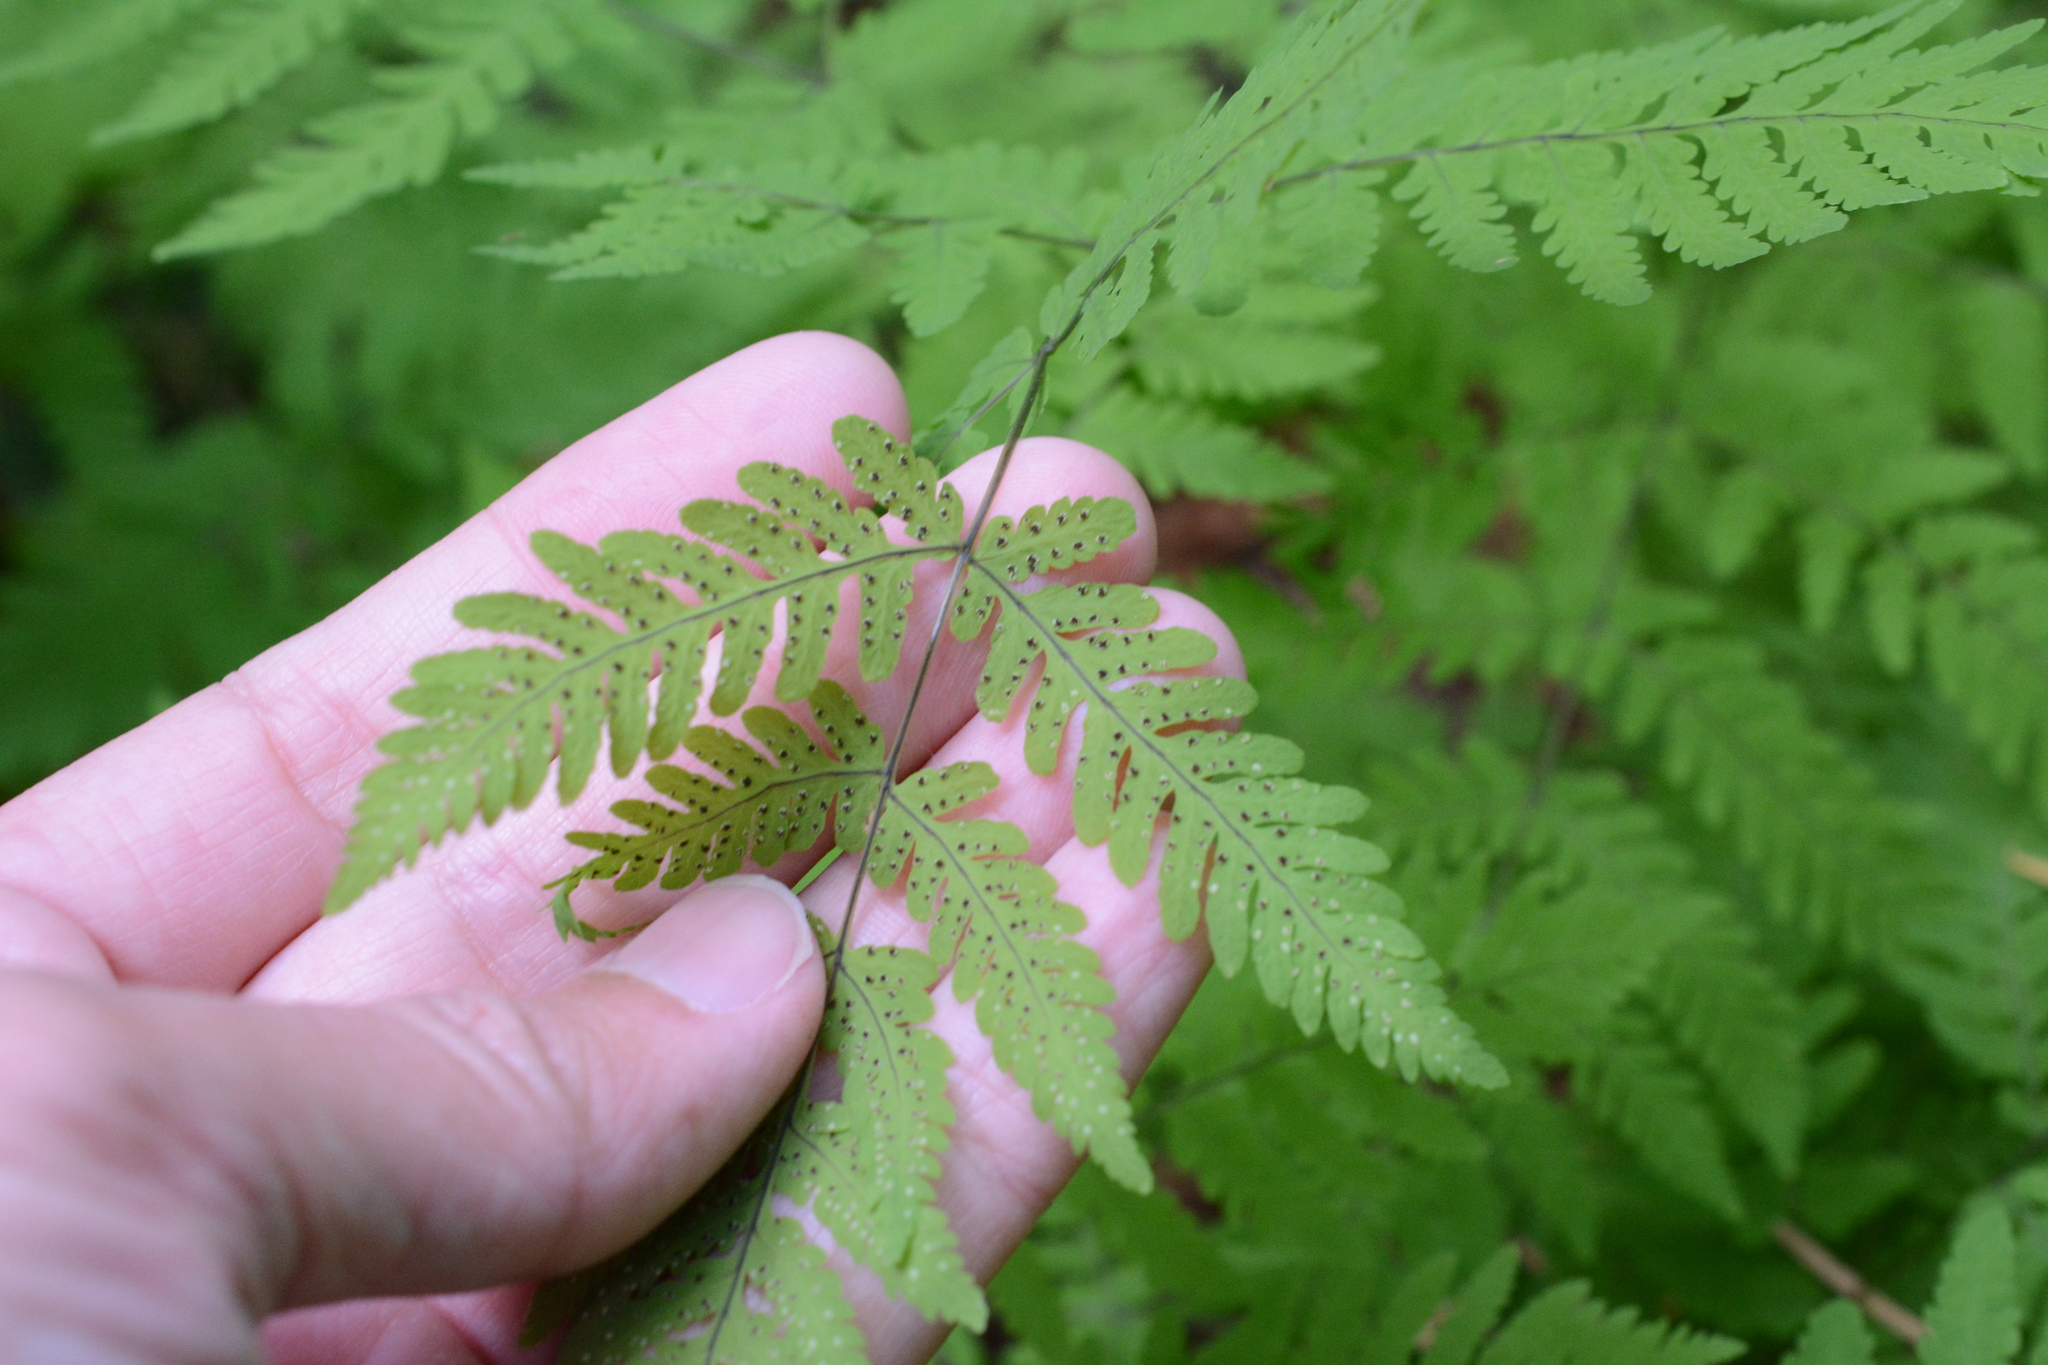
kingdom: Plantae
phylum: Tracheophyta
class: Polypodiopsida
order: Polypodiales
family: Cystopteridaceae
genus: Gymnocarpium
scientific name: Gymnocarpium disjunctum
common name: Western oak fern
